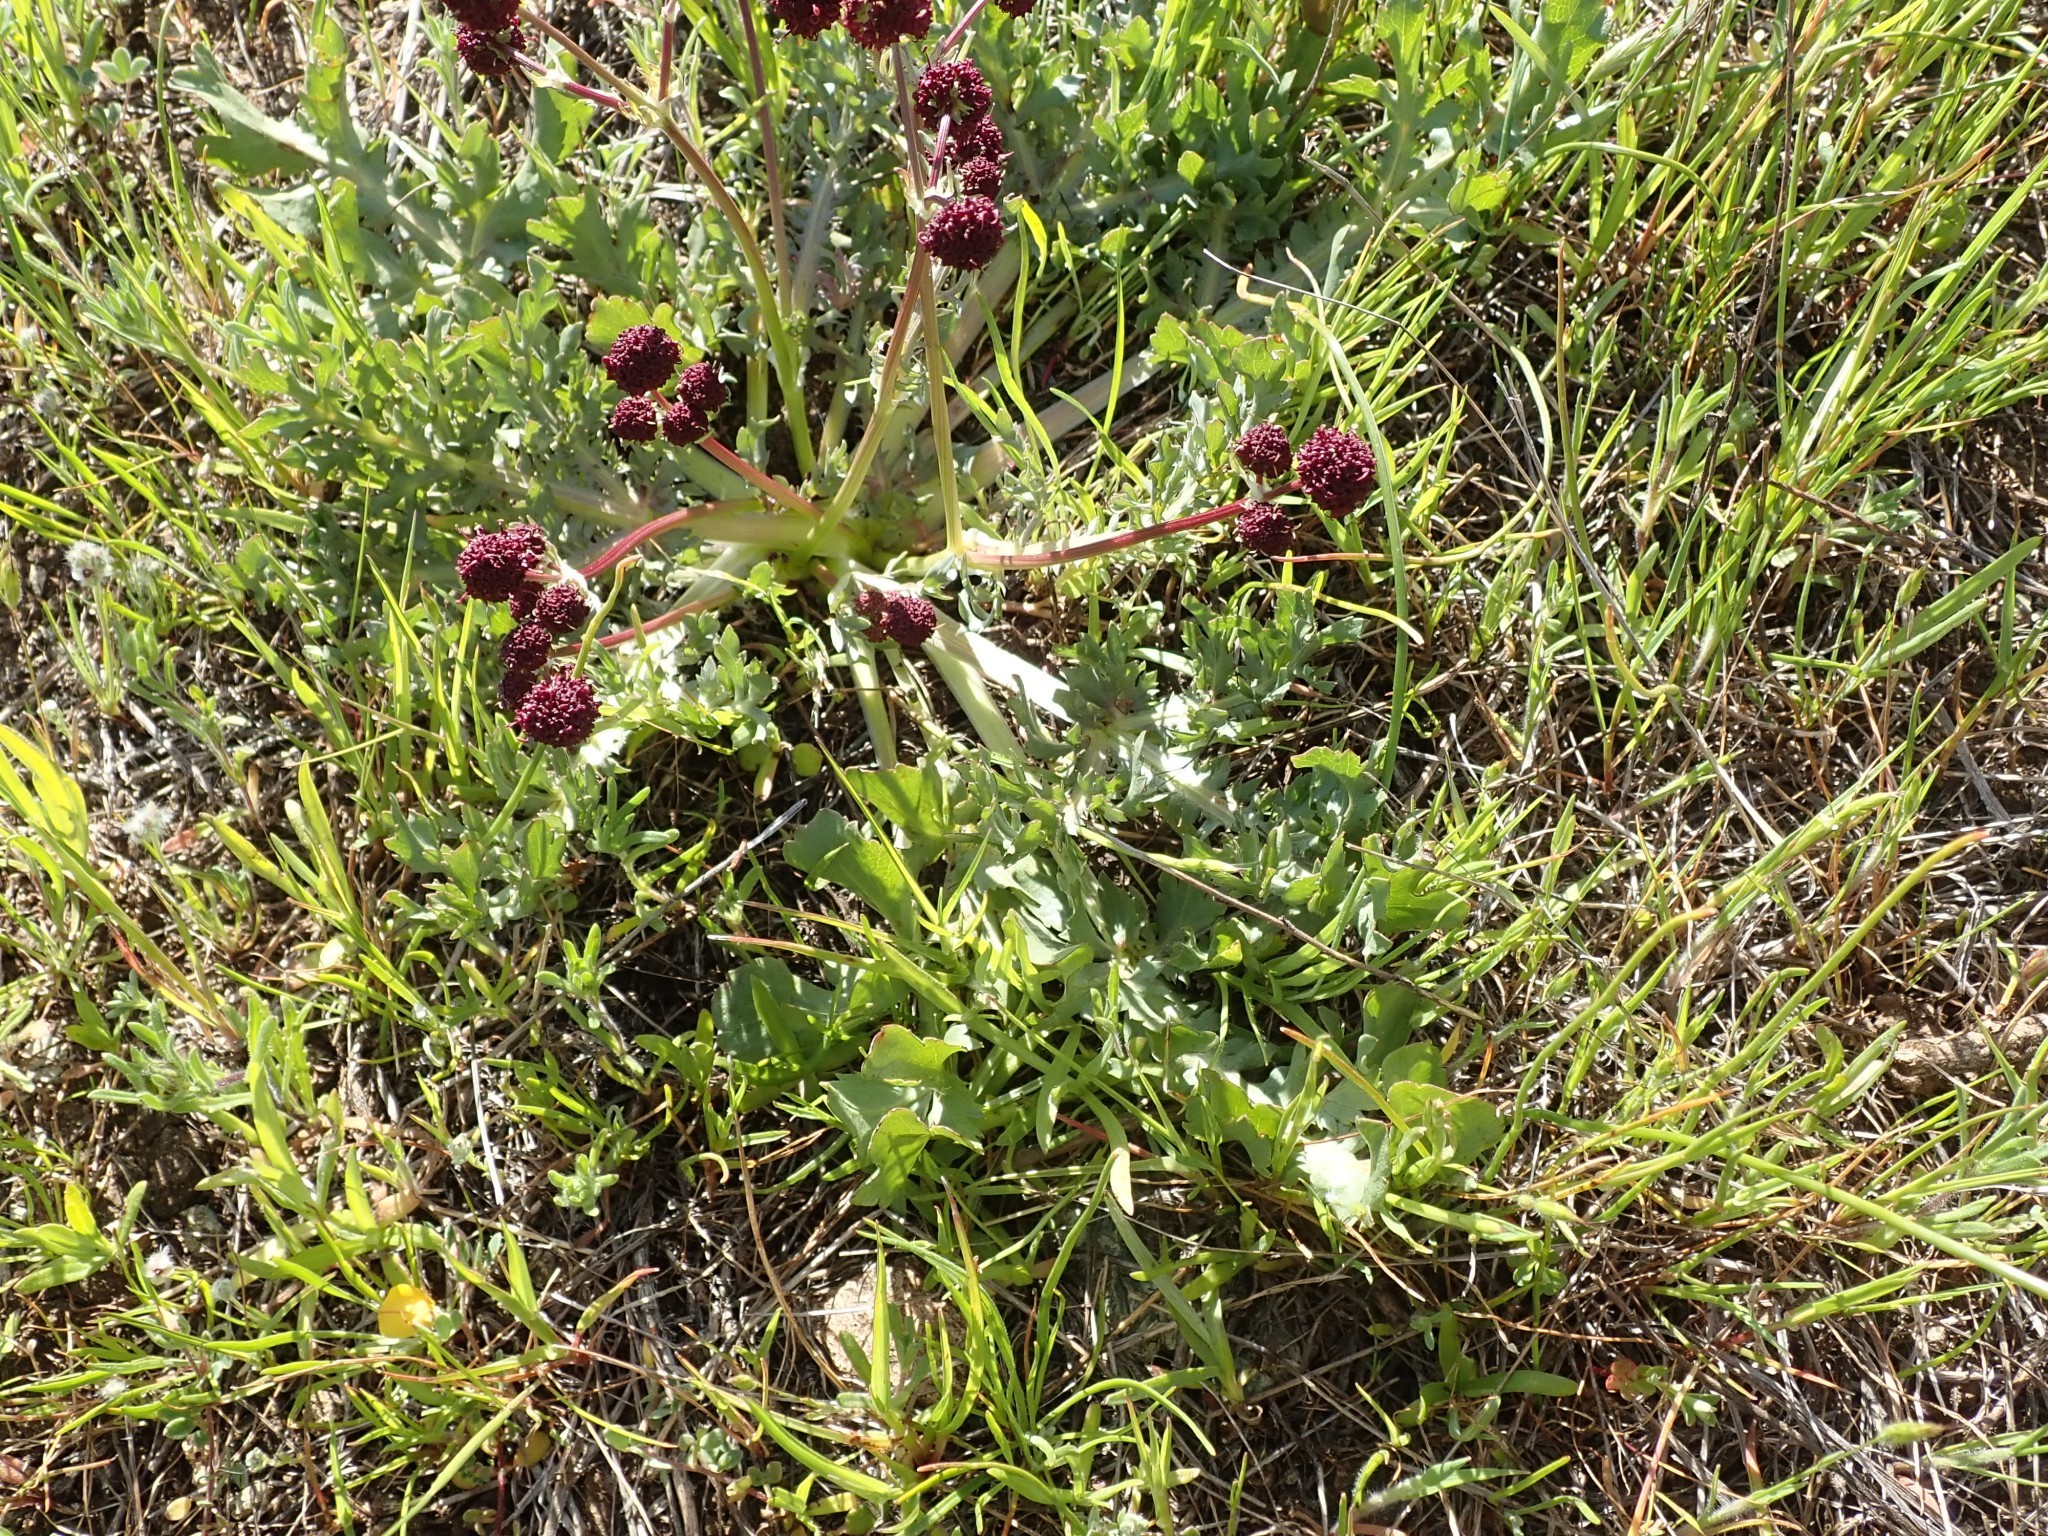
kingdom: Plantae
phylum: Tracheophyta
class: Magnoliopsida
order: Apiales
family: Apiaceae
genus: Sanicula
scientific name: Sanicula bipinnatifida
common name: Shoe-buttons
